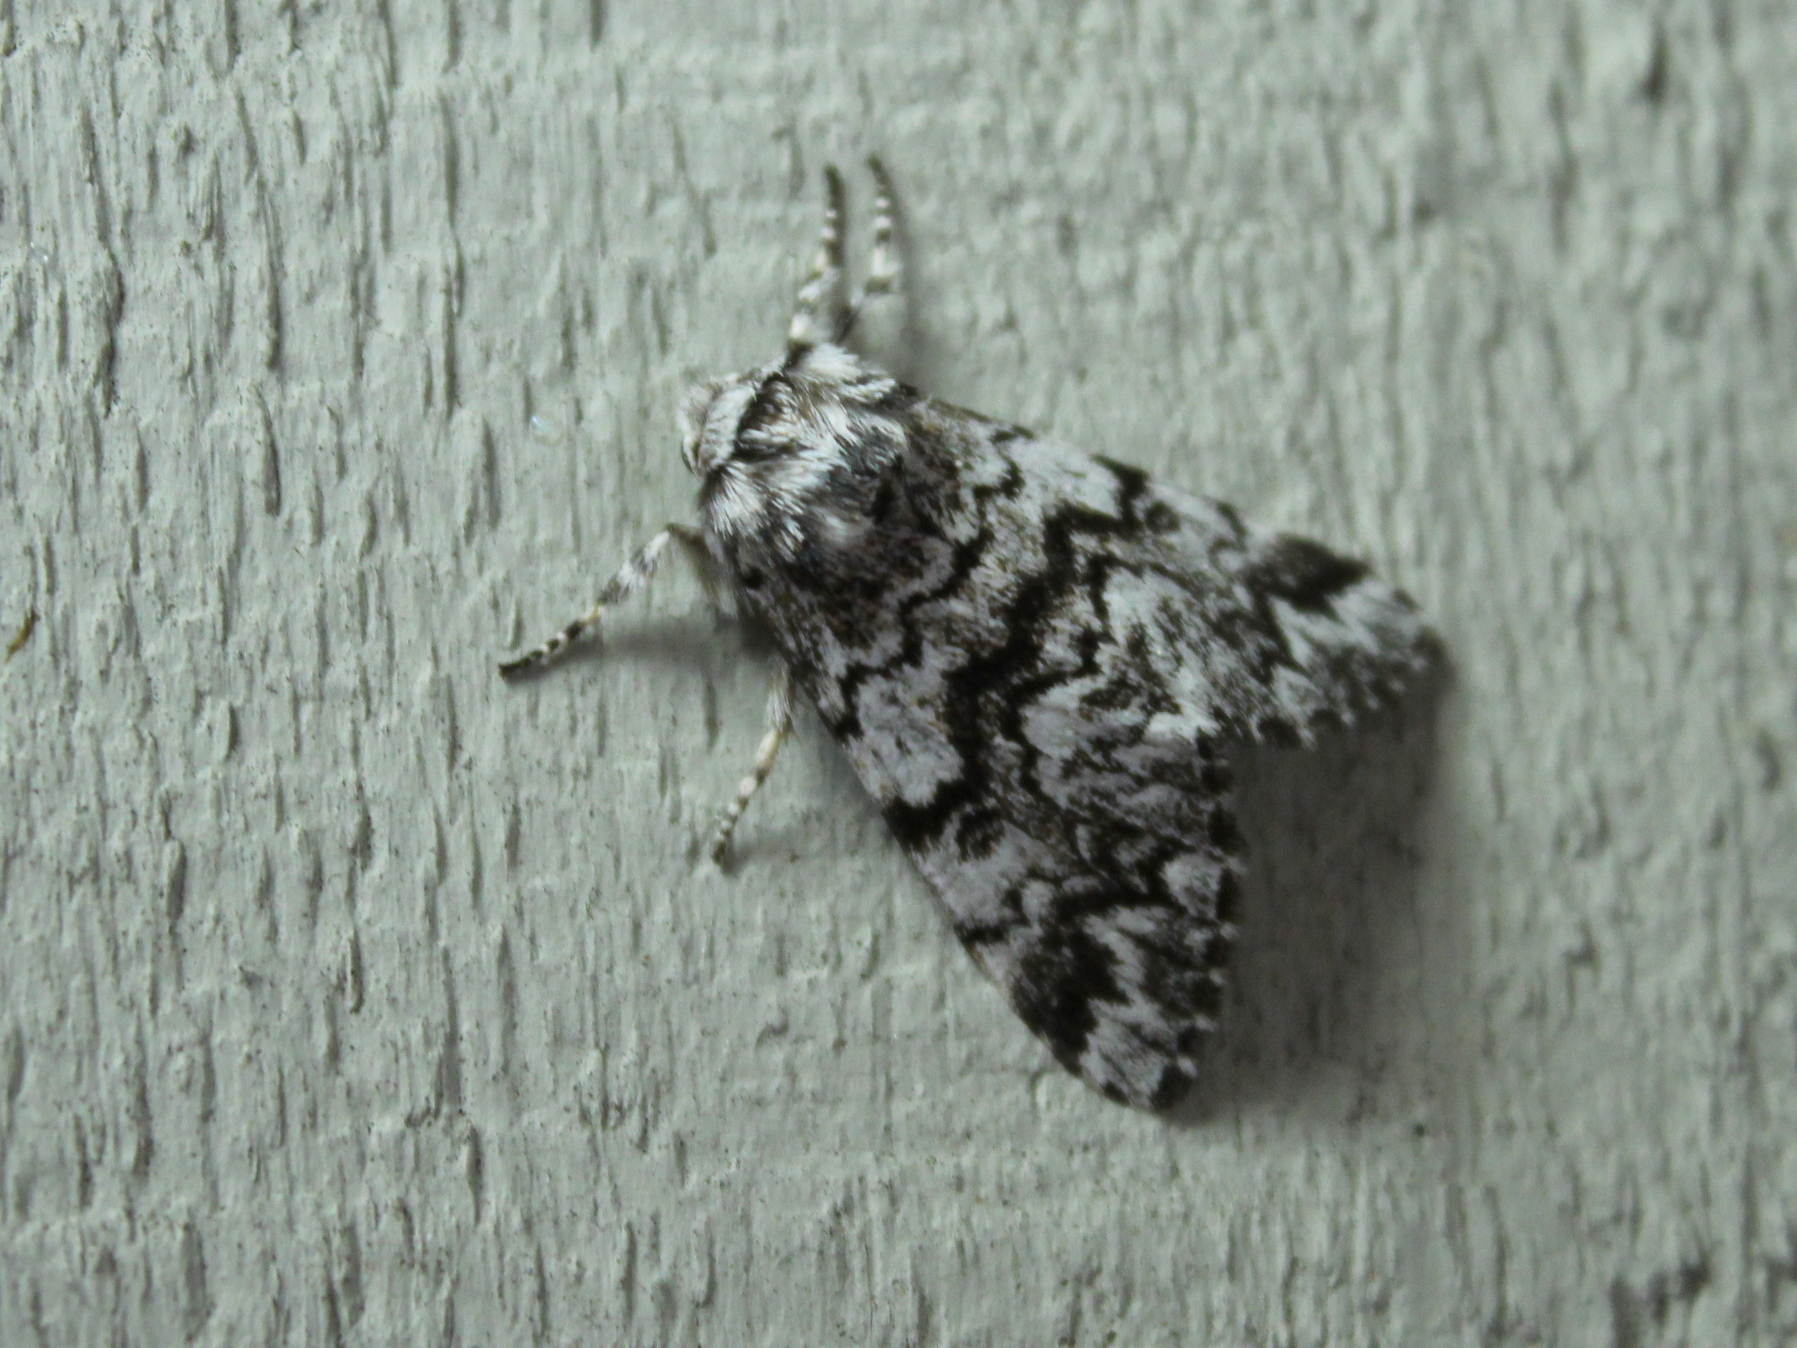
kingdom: Animalia
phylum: Arthropoda
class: Insecta
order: Lepidoptera
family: Noctuidae
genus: Panthea
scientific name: Panthea acronyctoides
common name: Black zigzag moth
